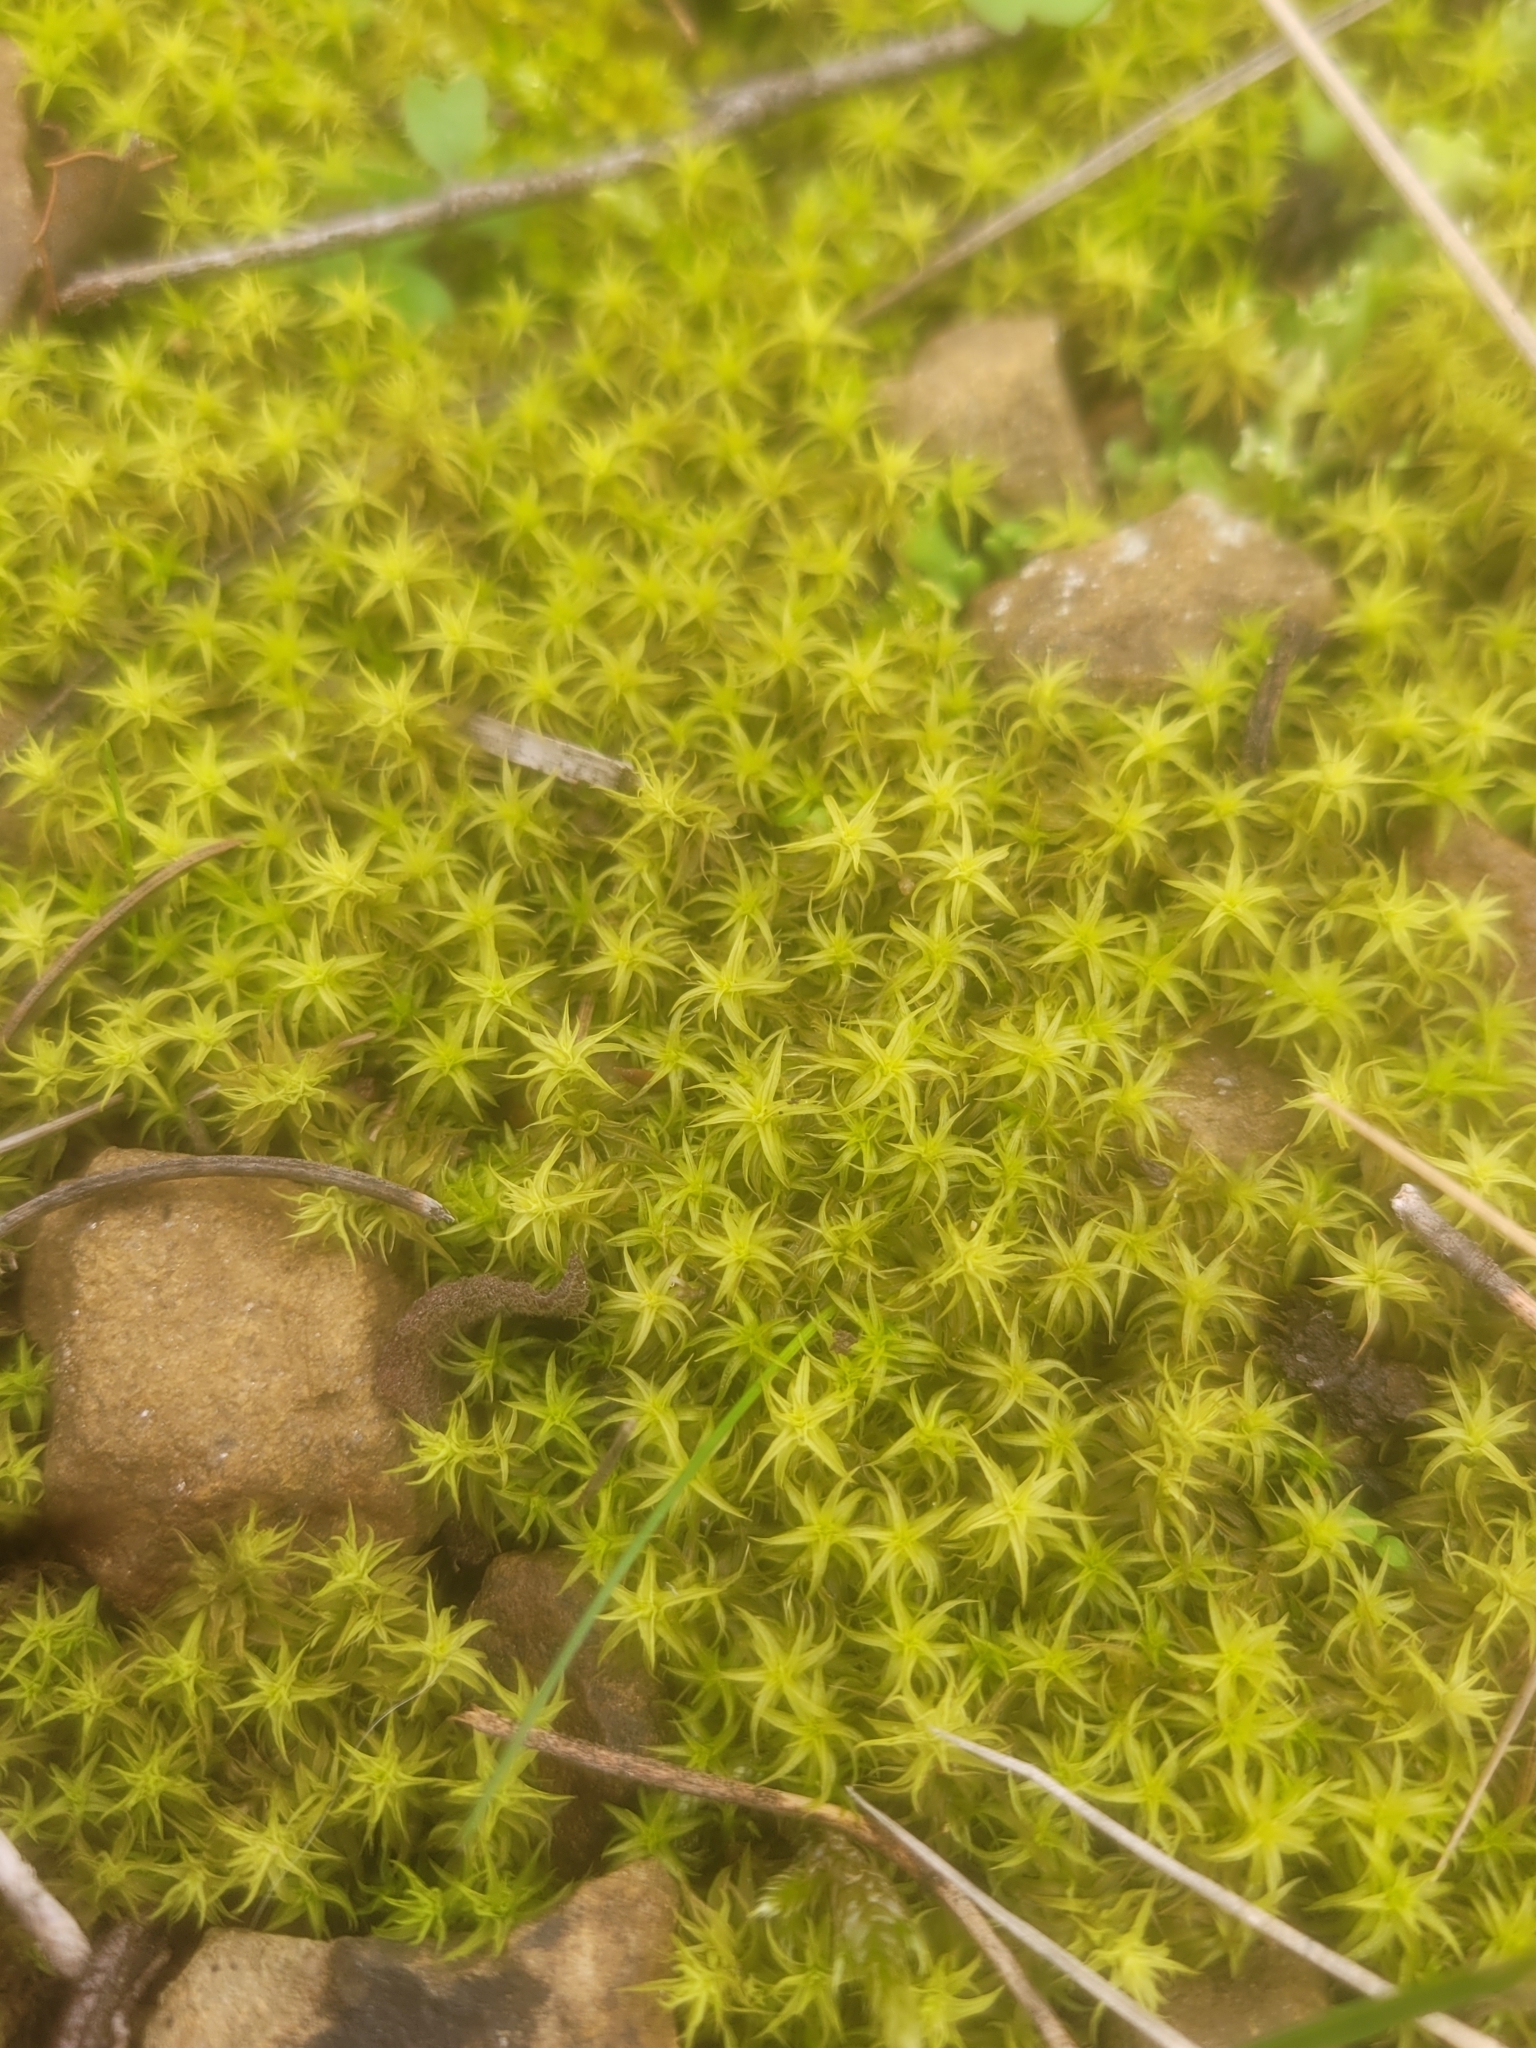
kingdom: Plantae
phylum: Bryophyta
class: Bryopsida
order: Pottiales
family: Pottiaceae
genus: Pleurochaete
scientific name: Pleurochaete squarrosa
